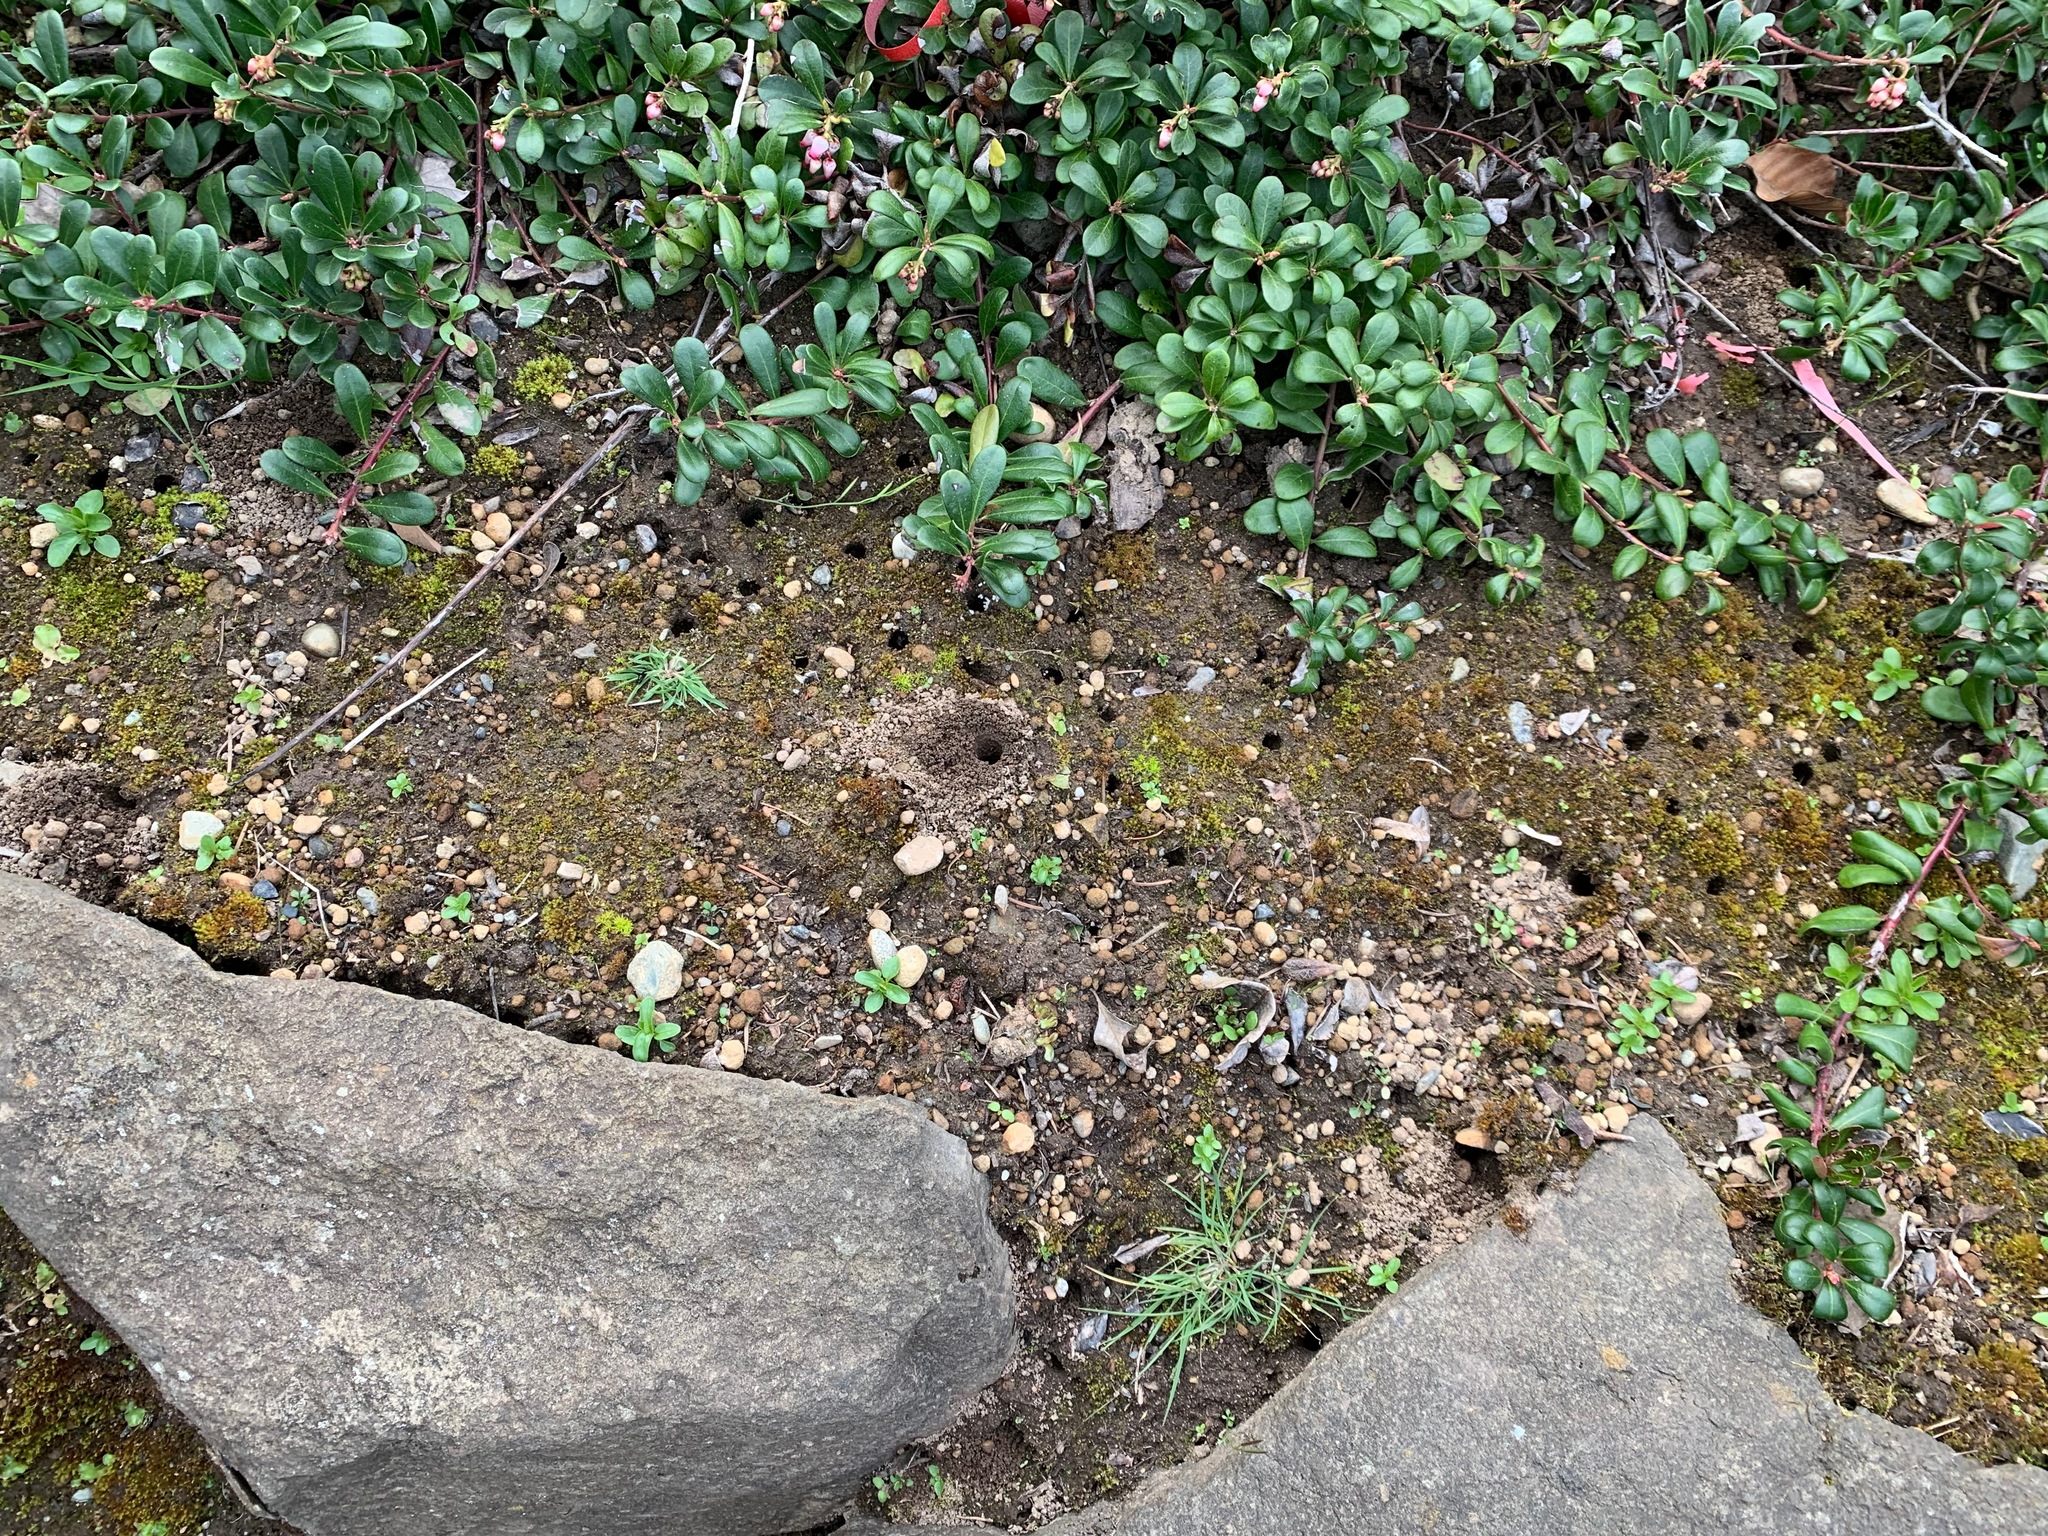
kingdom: Animalia
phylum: Arthropoda
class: Insecta
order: Hymenoptera
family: Apidae
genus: Anthophora
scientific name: Anthophora pacifica
